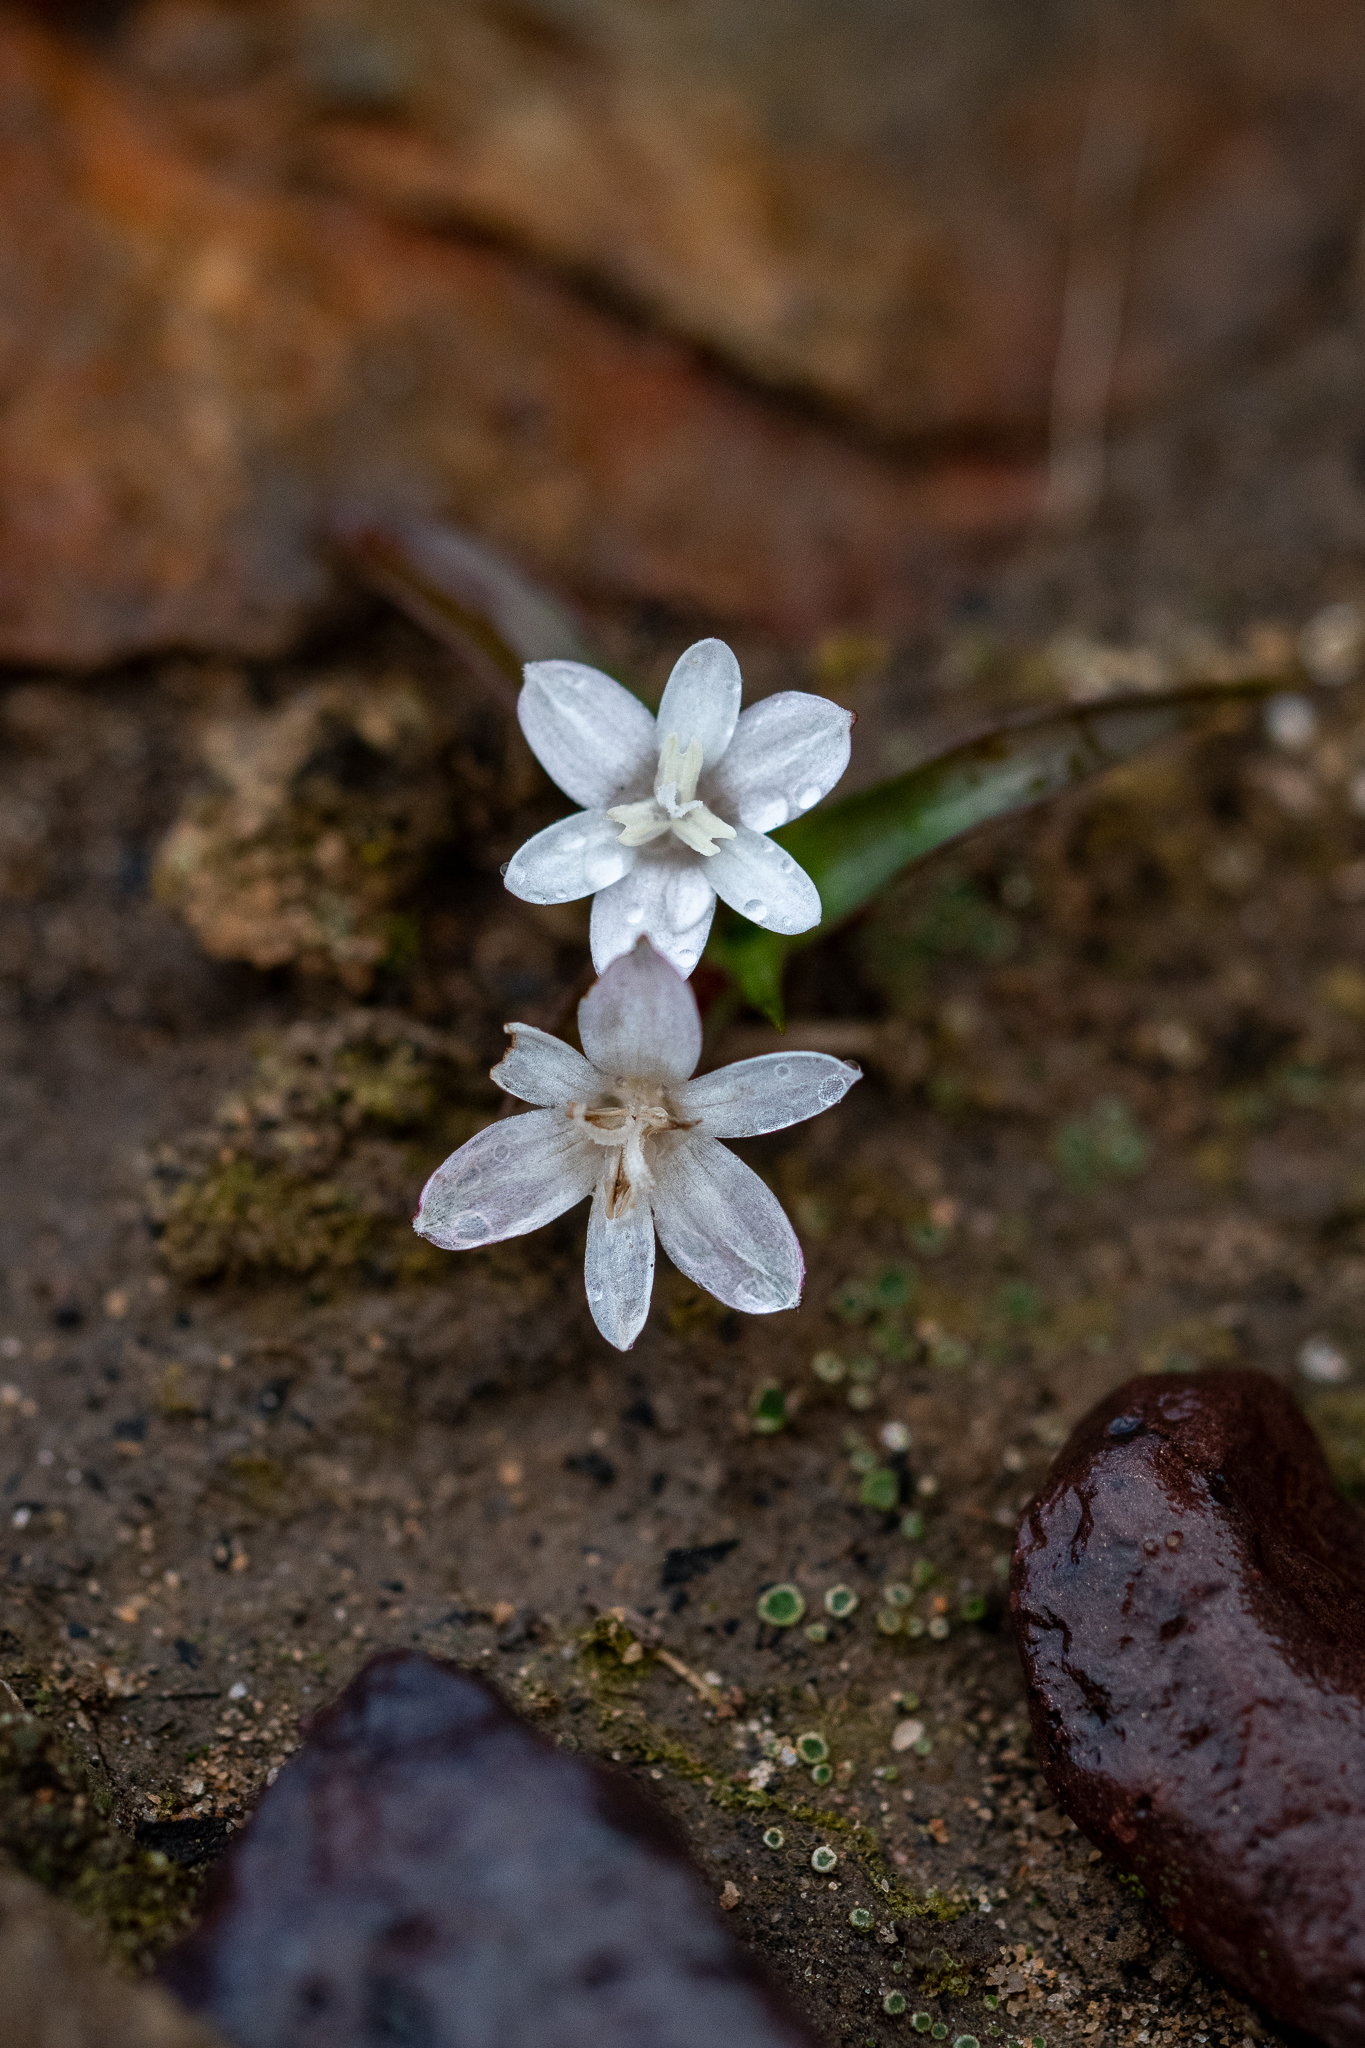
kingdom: Plantae
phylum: Tracheophyta
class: Liliopsida
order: Asparagales
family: Hypoxidaceae
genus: Pauridia
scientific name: Pauridia minuta
